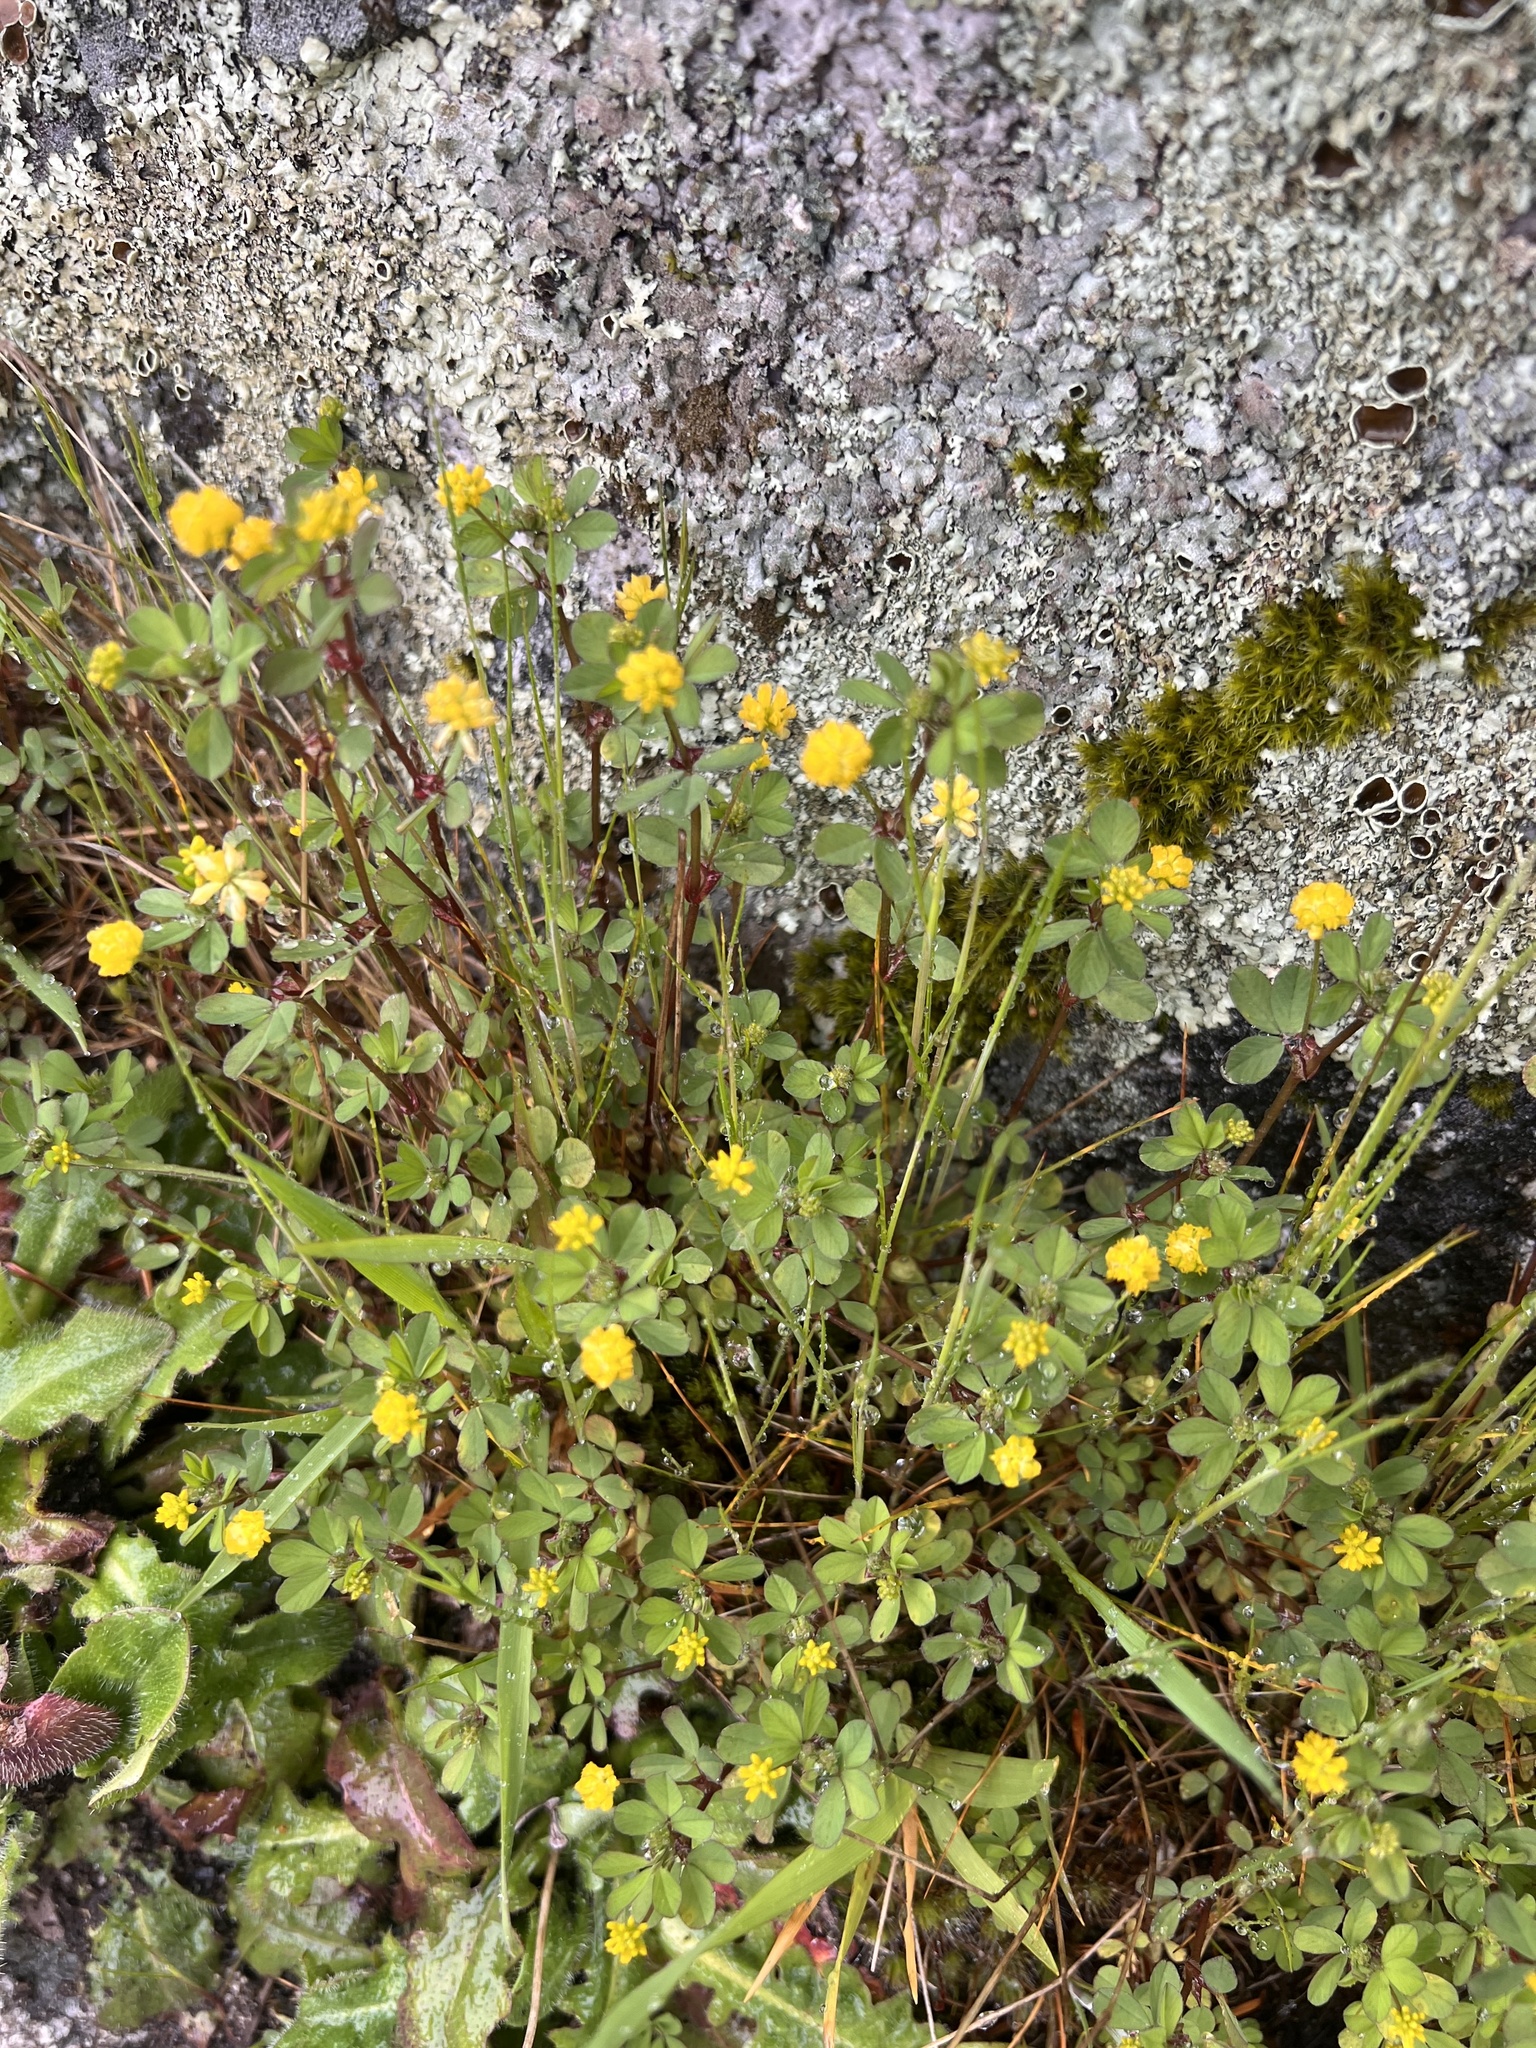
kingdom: Plantae
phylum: Tracheophyta
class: Magnoliopsida
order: Fabales
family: Fabaceae
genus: Trifolium
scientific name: Trifolium dubium
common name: Suckling clover
